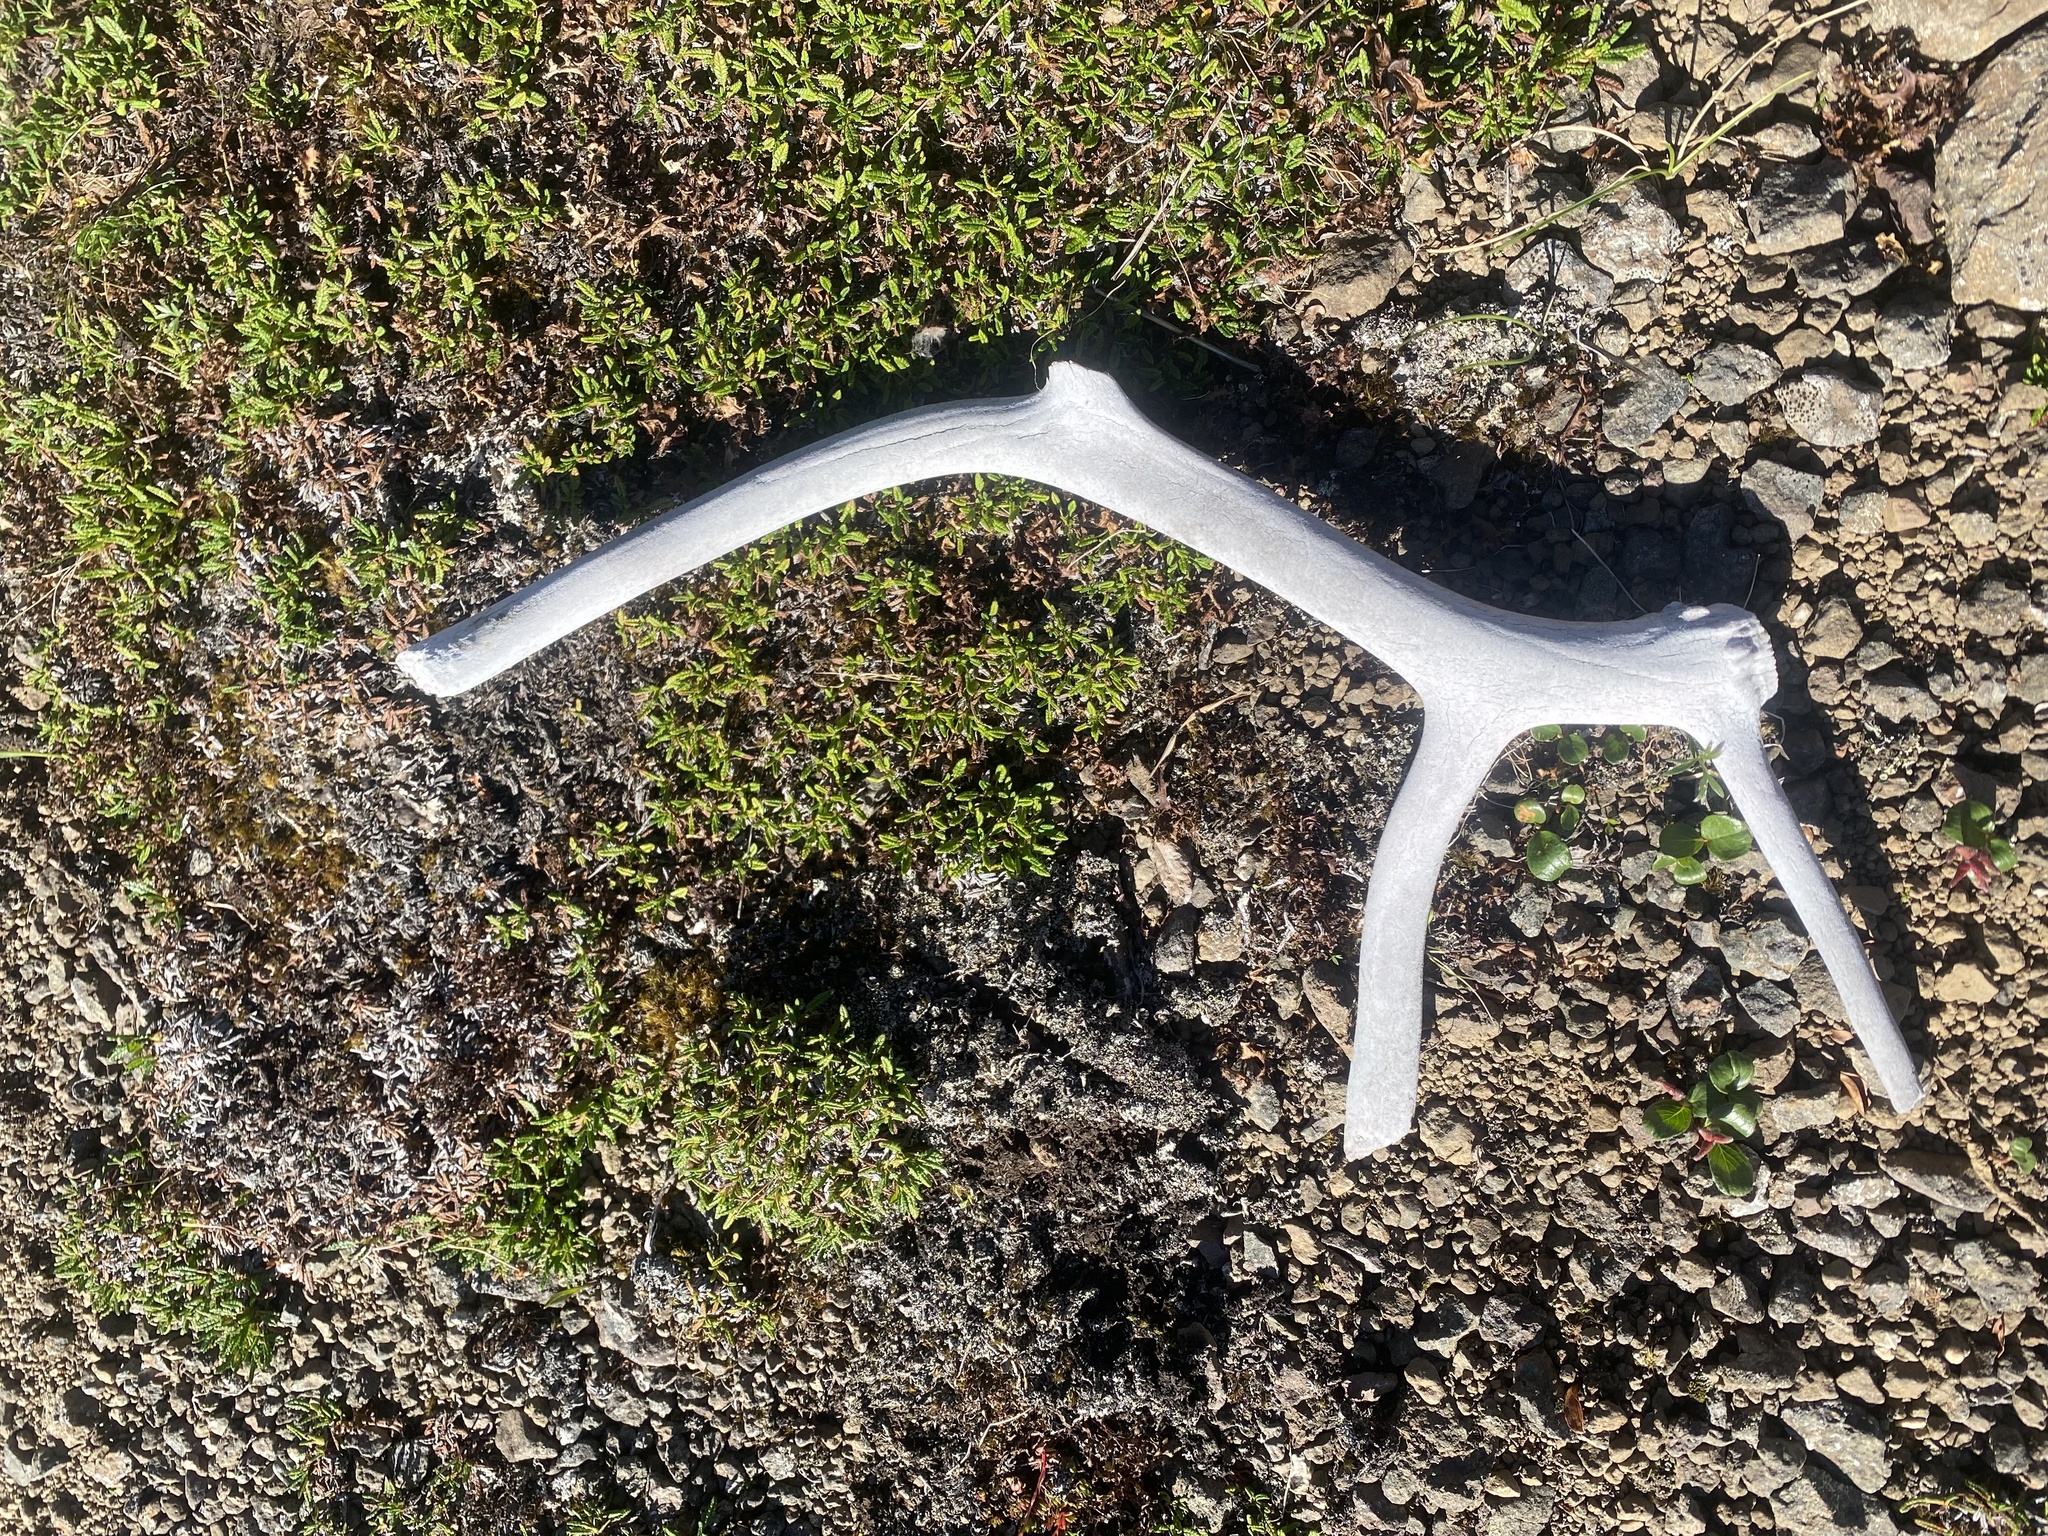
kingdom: Animalia
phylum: Chordata
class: Mammalia
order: Artiodactyla
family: Cervidae
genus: Rangifer
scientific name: Rangifer tarandus
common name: Reindeer
